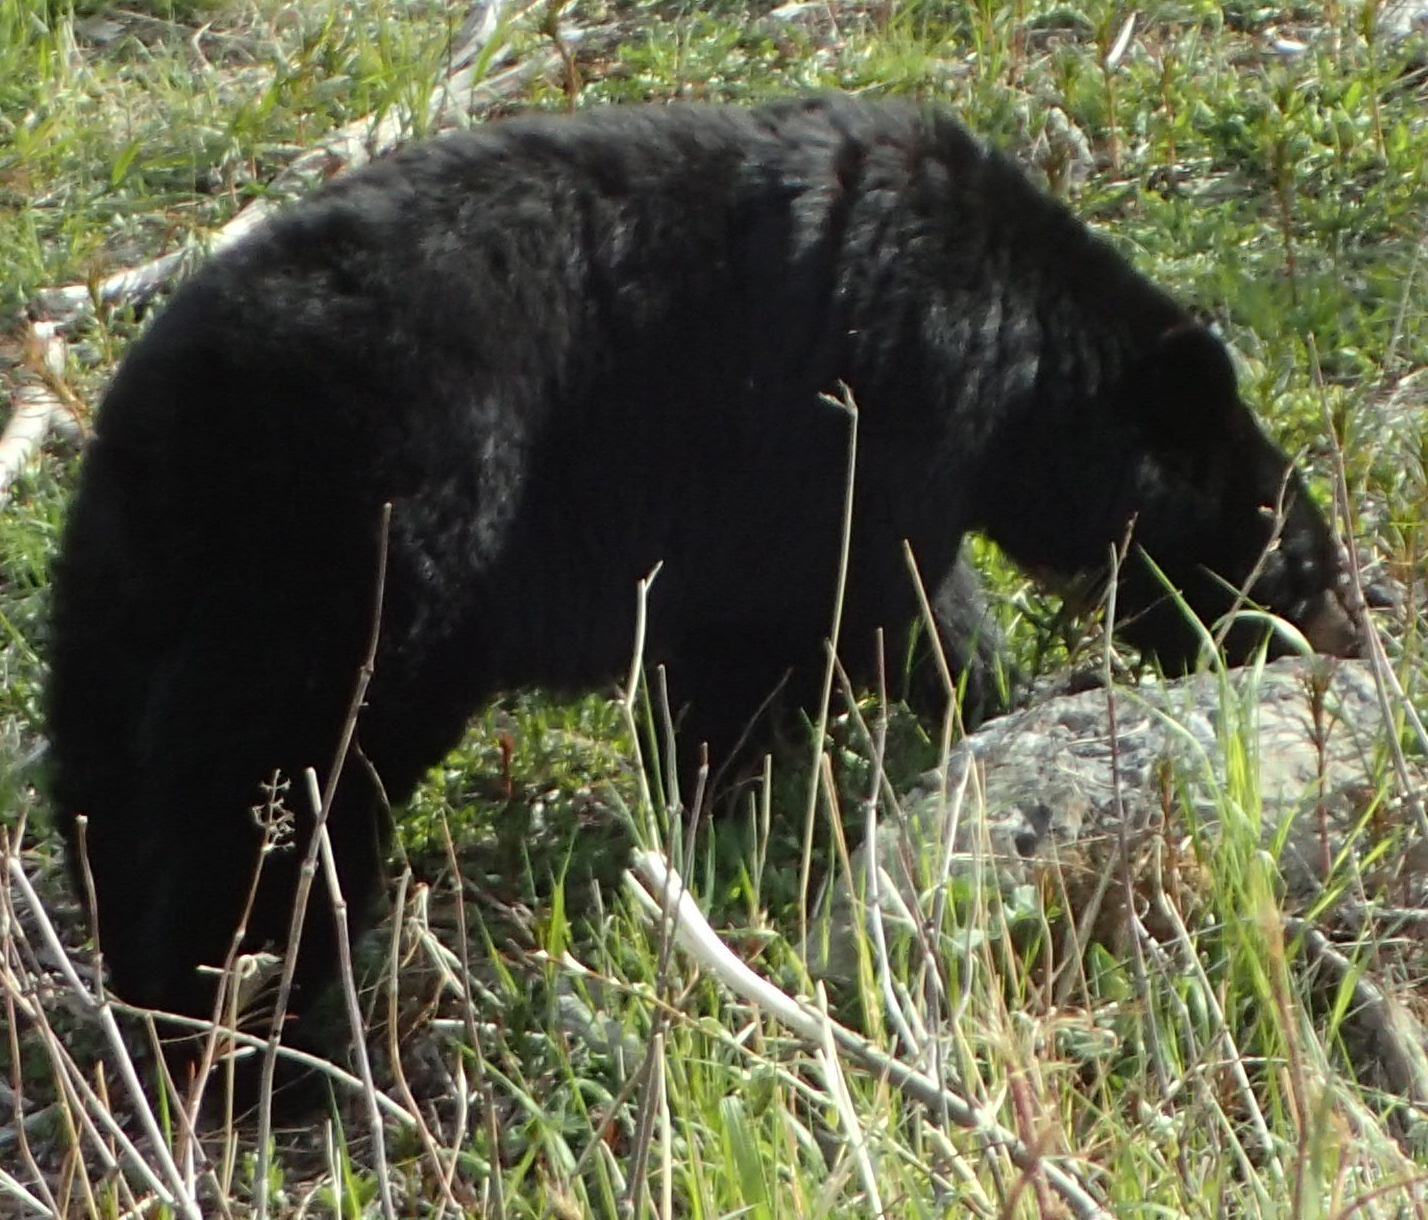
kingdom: Animalia
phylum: Chordata
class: Mammalia
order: Carnivora
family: Ursidae
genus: Ursus
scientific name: Ursus americanus
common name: American black bear
